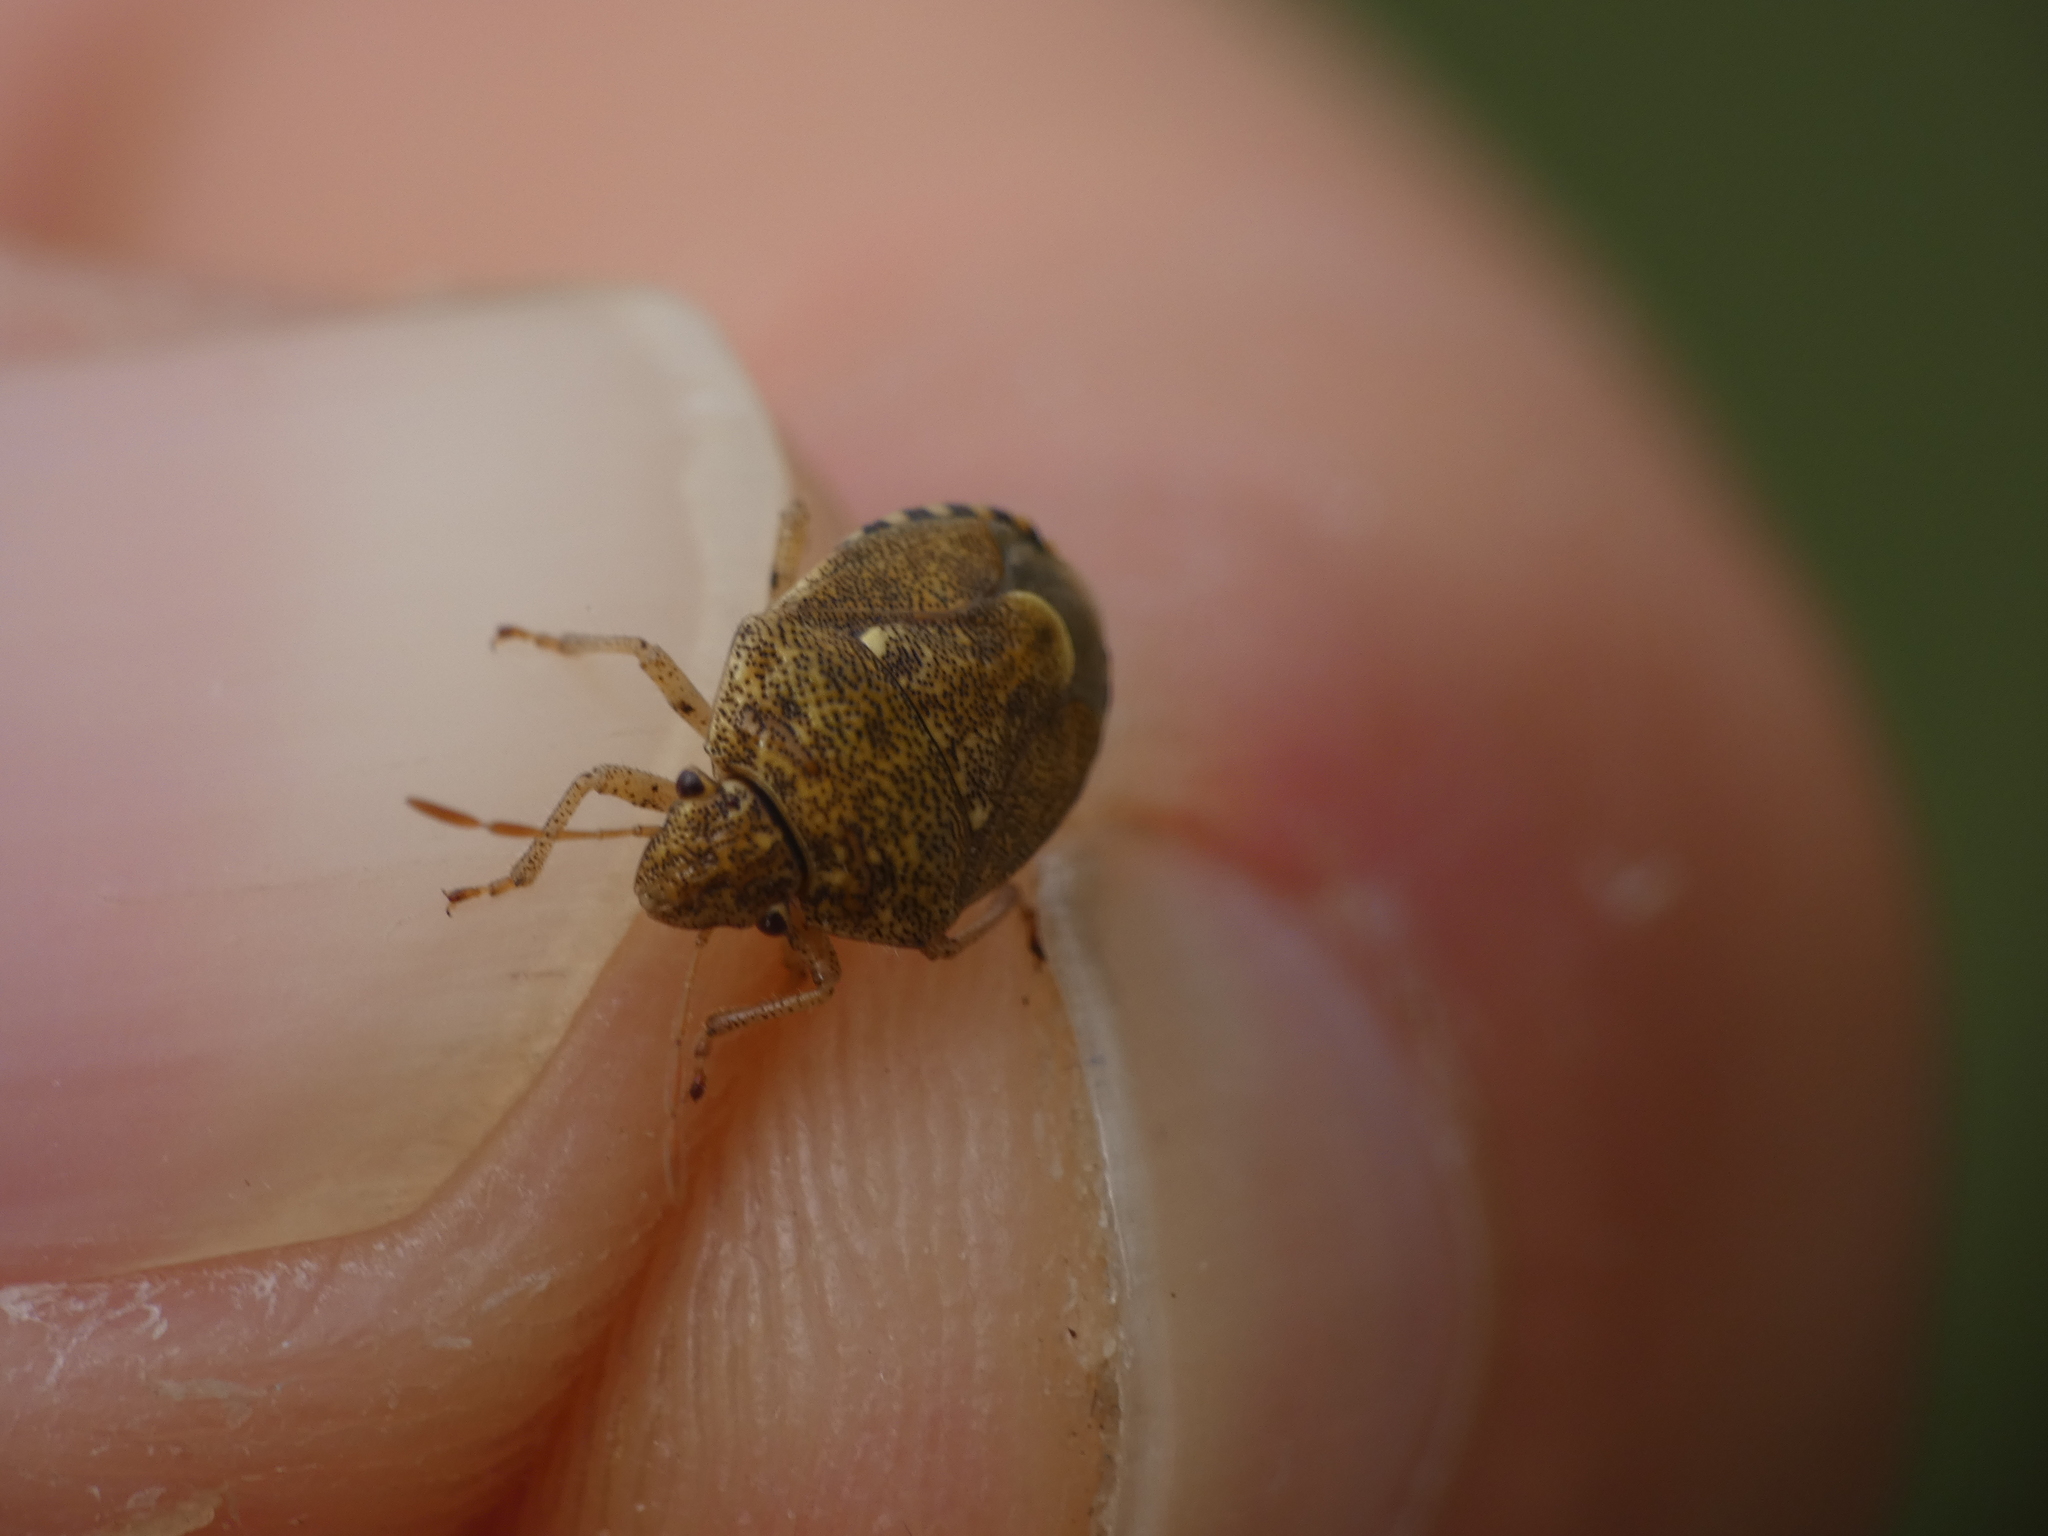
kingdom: Animalia
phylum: Arthropoda
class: Insecta
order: Hemiptera
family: Pentatomidae
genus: Staria
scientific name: Staria lunata
